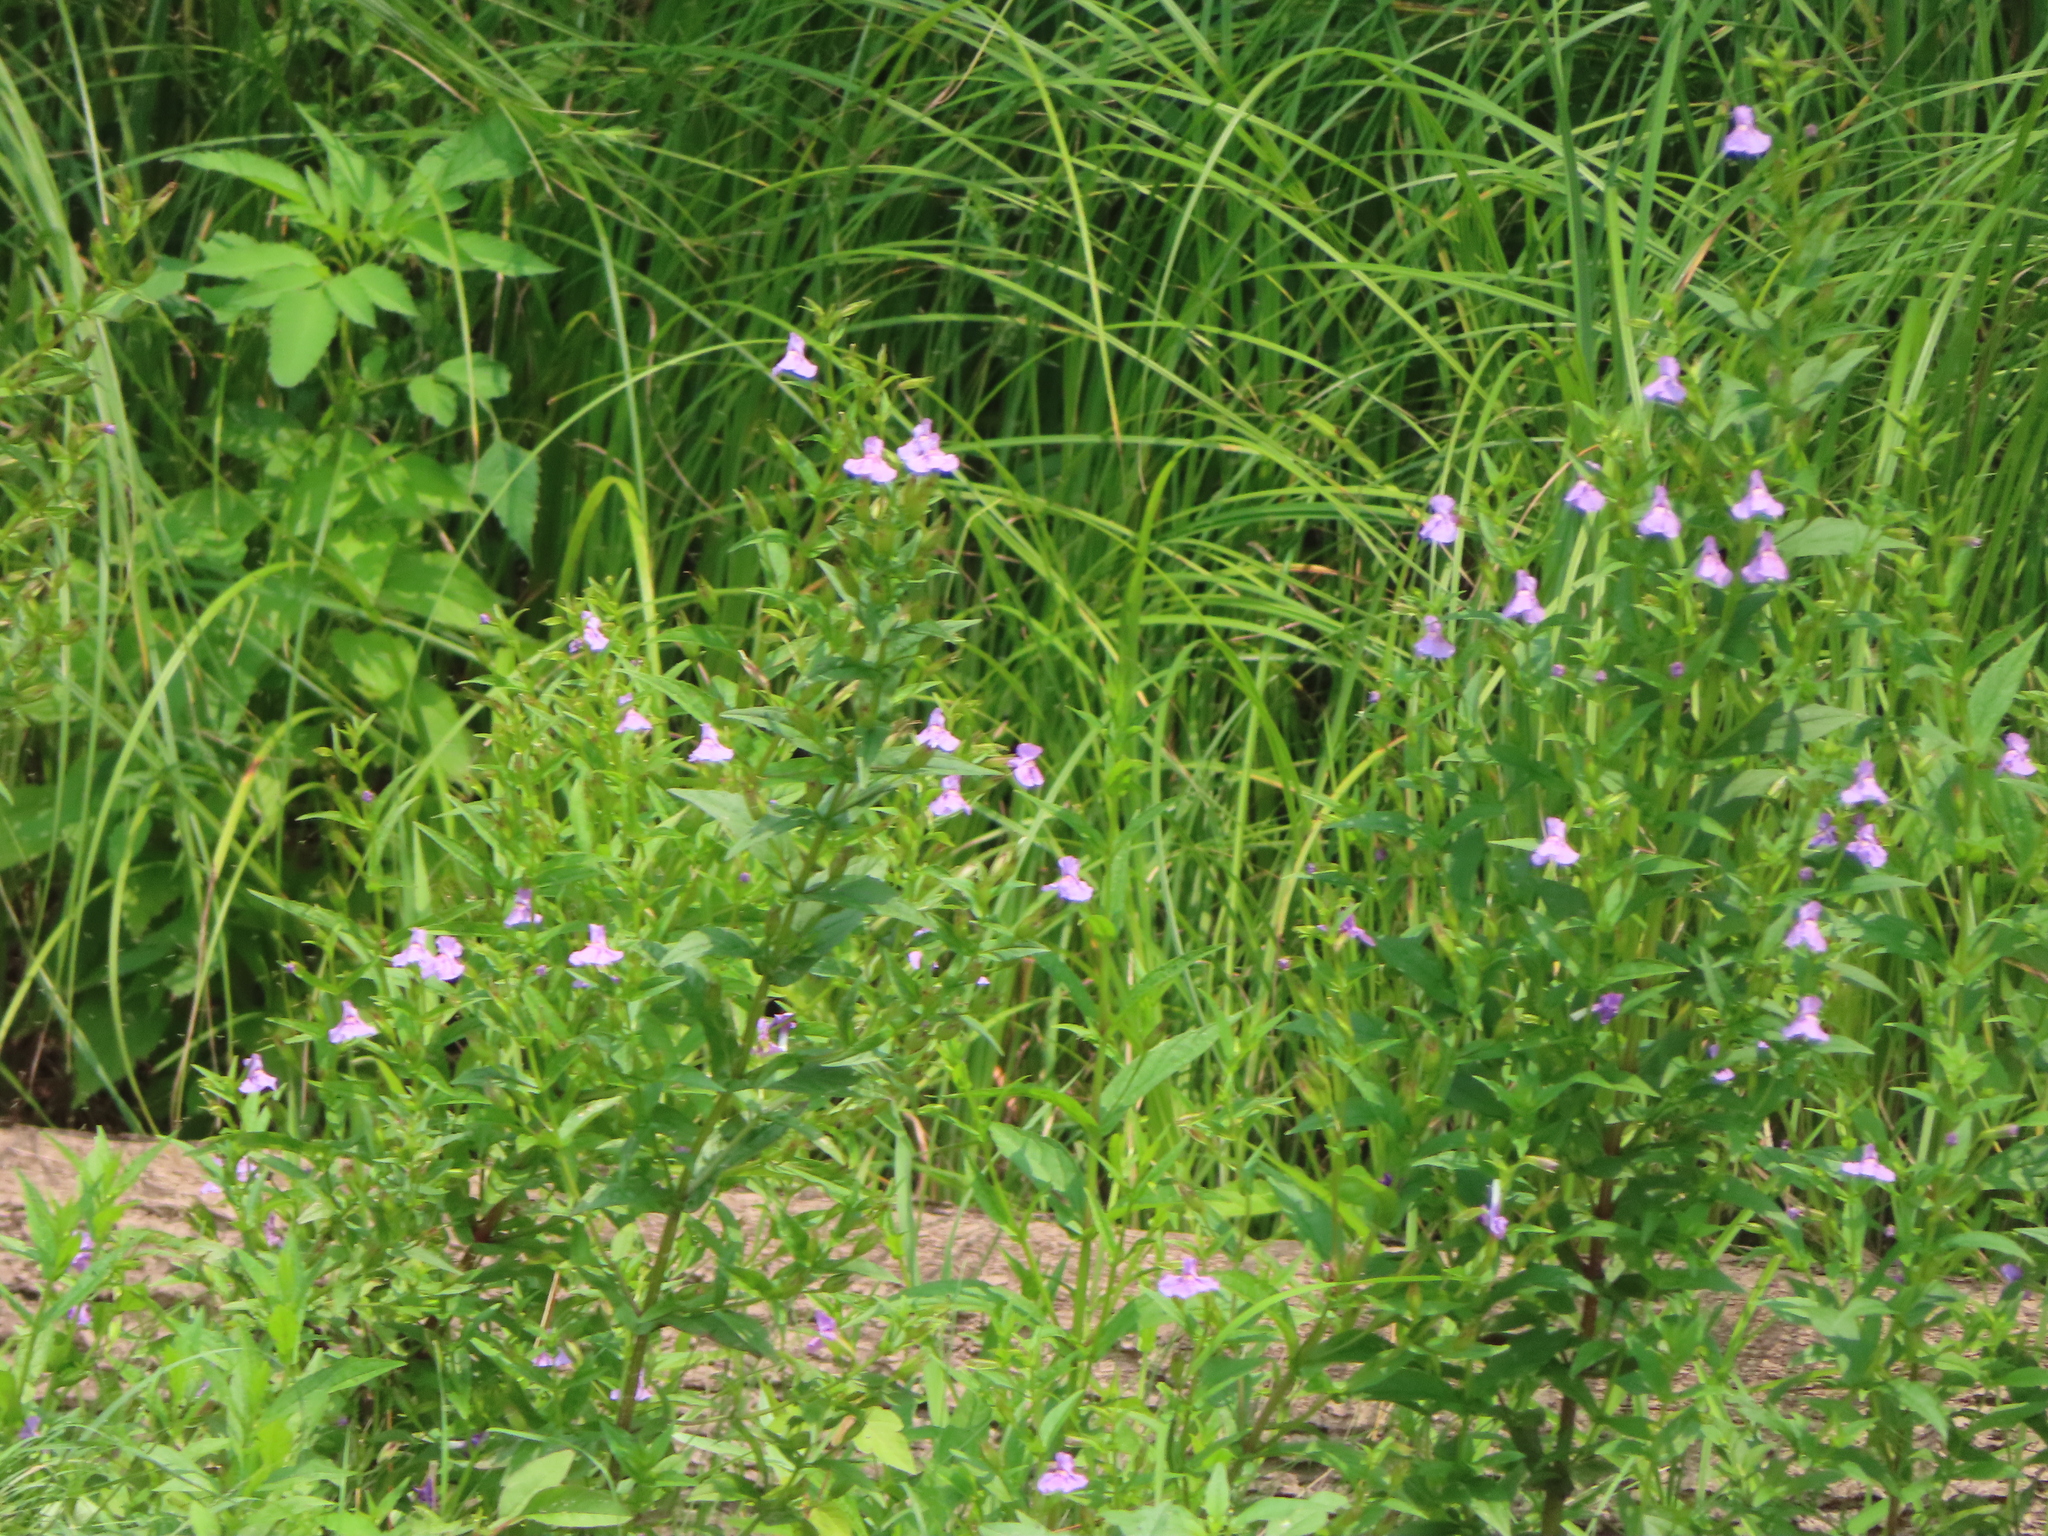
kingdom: Plantae
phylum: Tracheophyta
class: Magnoliopsida
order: Lamiales
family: Phrymaceae
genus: Mimulus
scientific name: Mimulus ringens
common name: Allegheny monkeyflower
